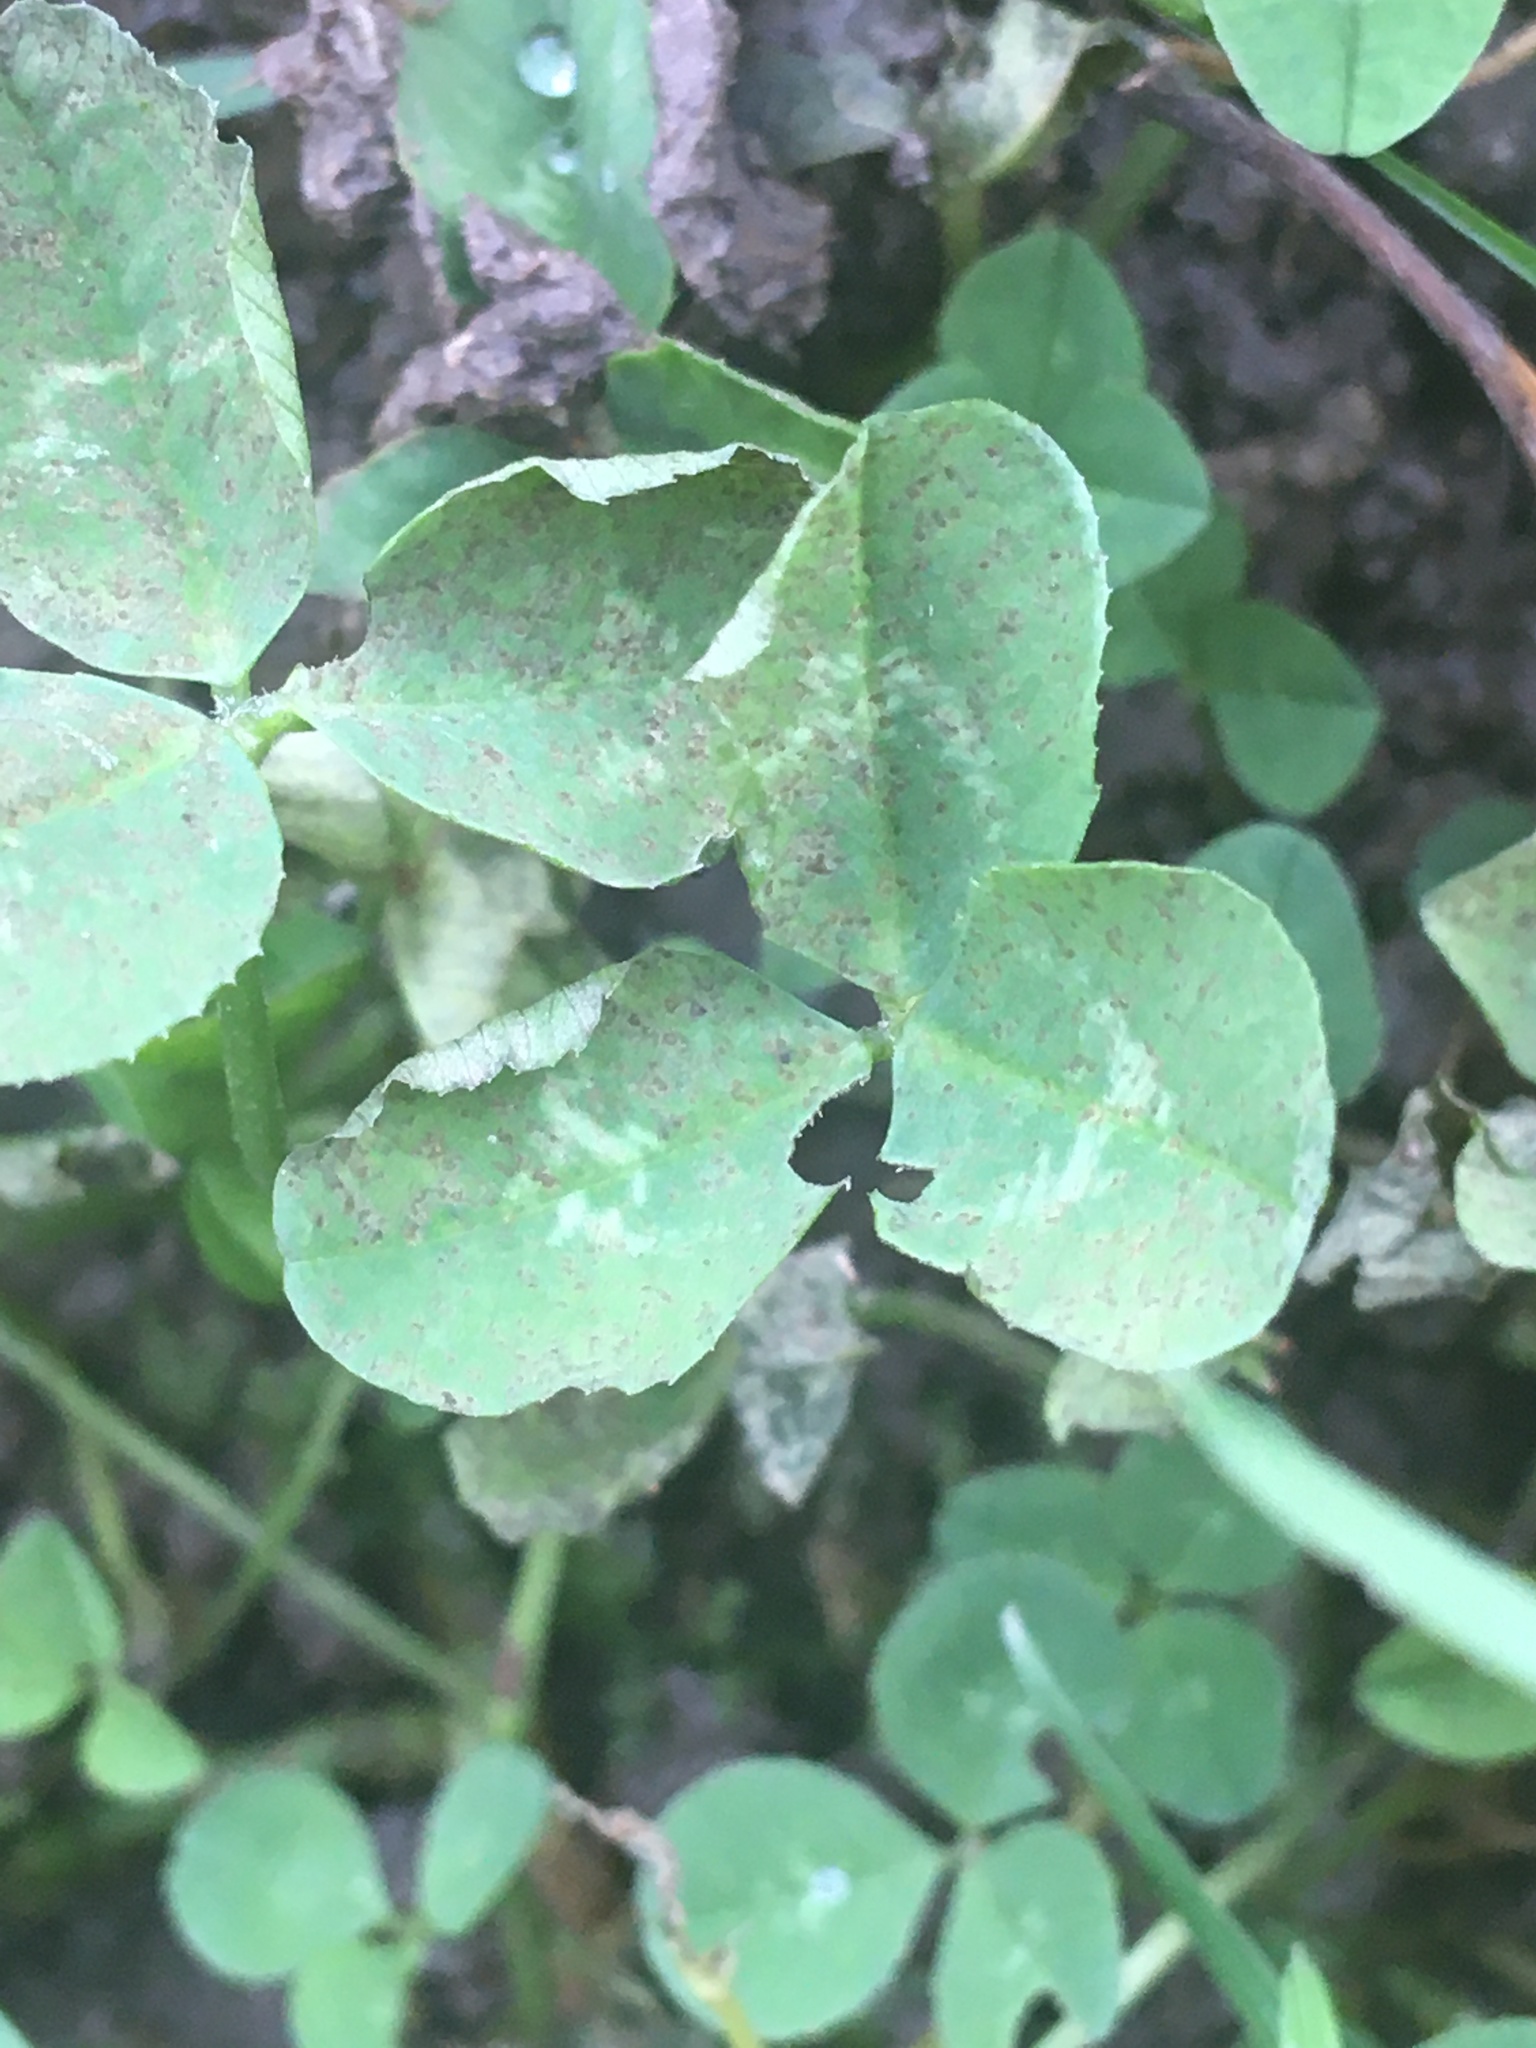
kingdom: Plantae
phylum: Tracheophyta
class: Magnoliopsida
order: Fabales
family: Fabaceae
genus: Trifolium
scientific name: Trifolium repens
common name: White clover
